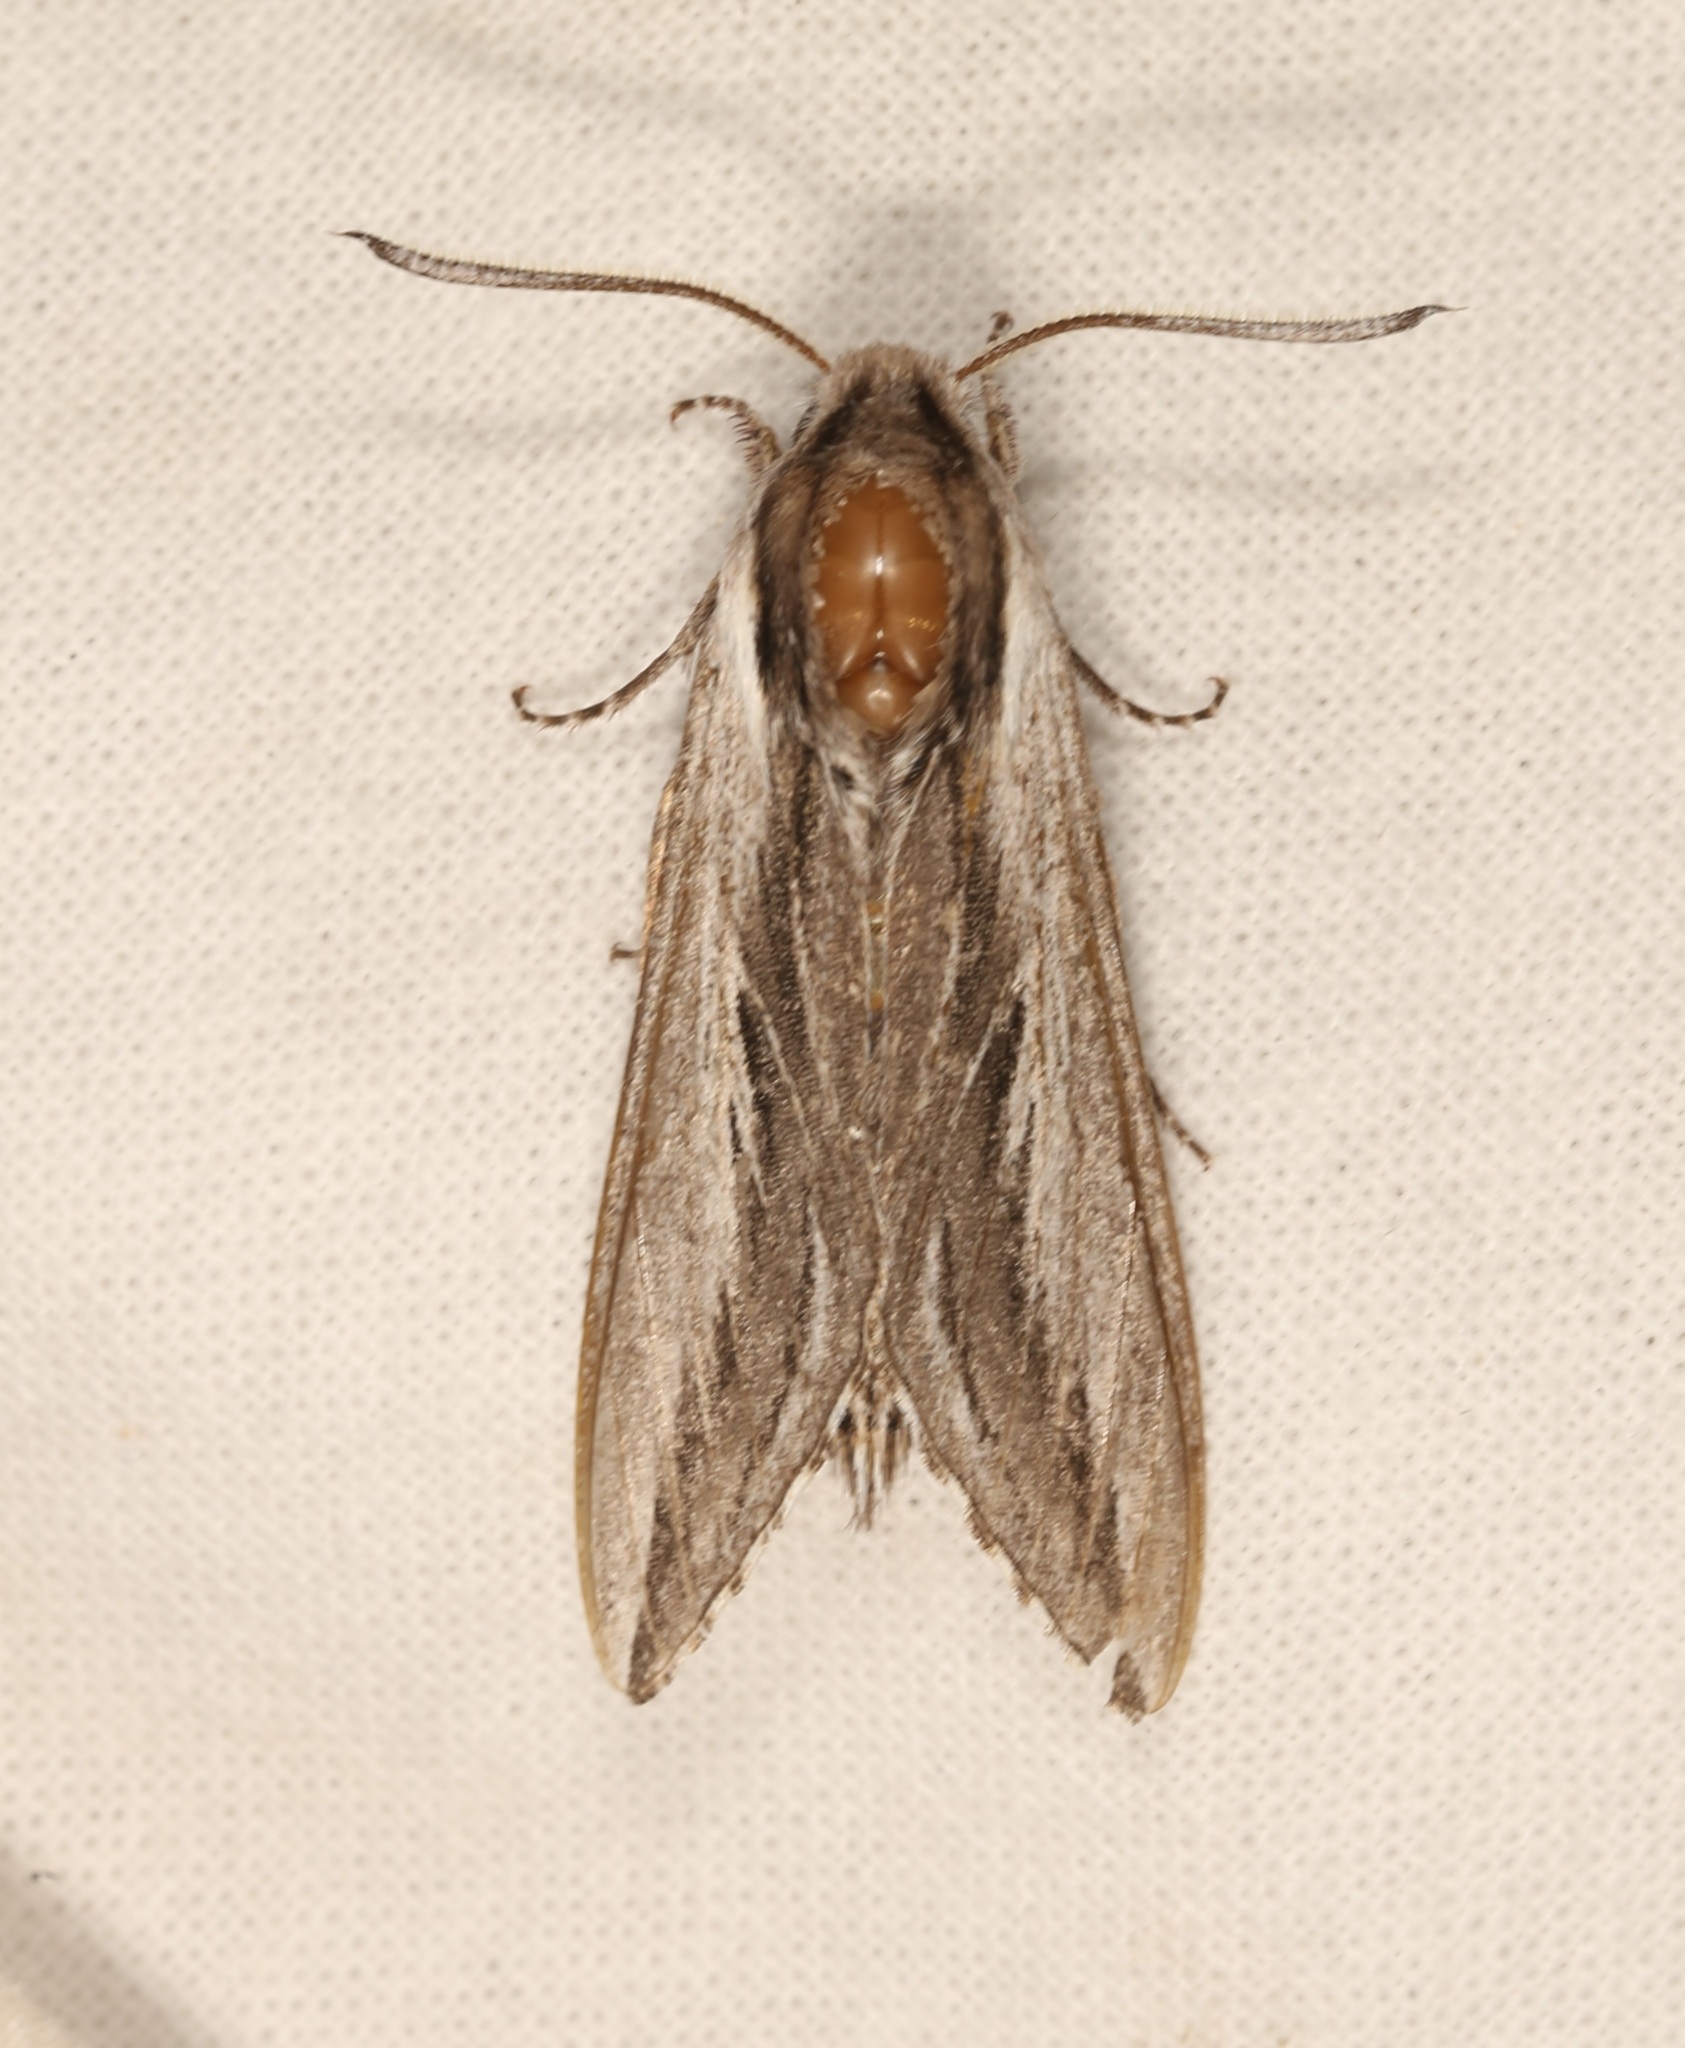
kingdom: Animalia
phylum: Arthropoda
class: Insecta
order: Lepidoptera
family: Sphingidae
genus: Sphinx
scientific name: Sphinx vanbuskirki
